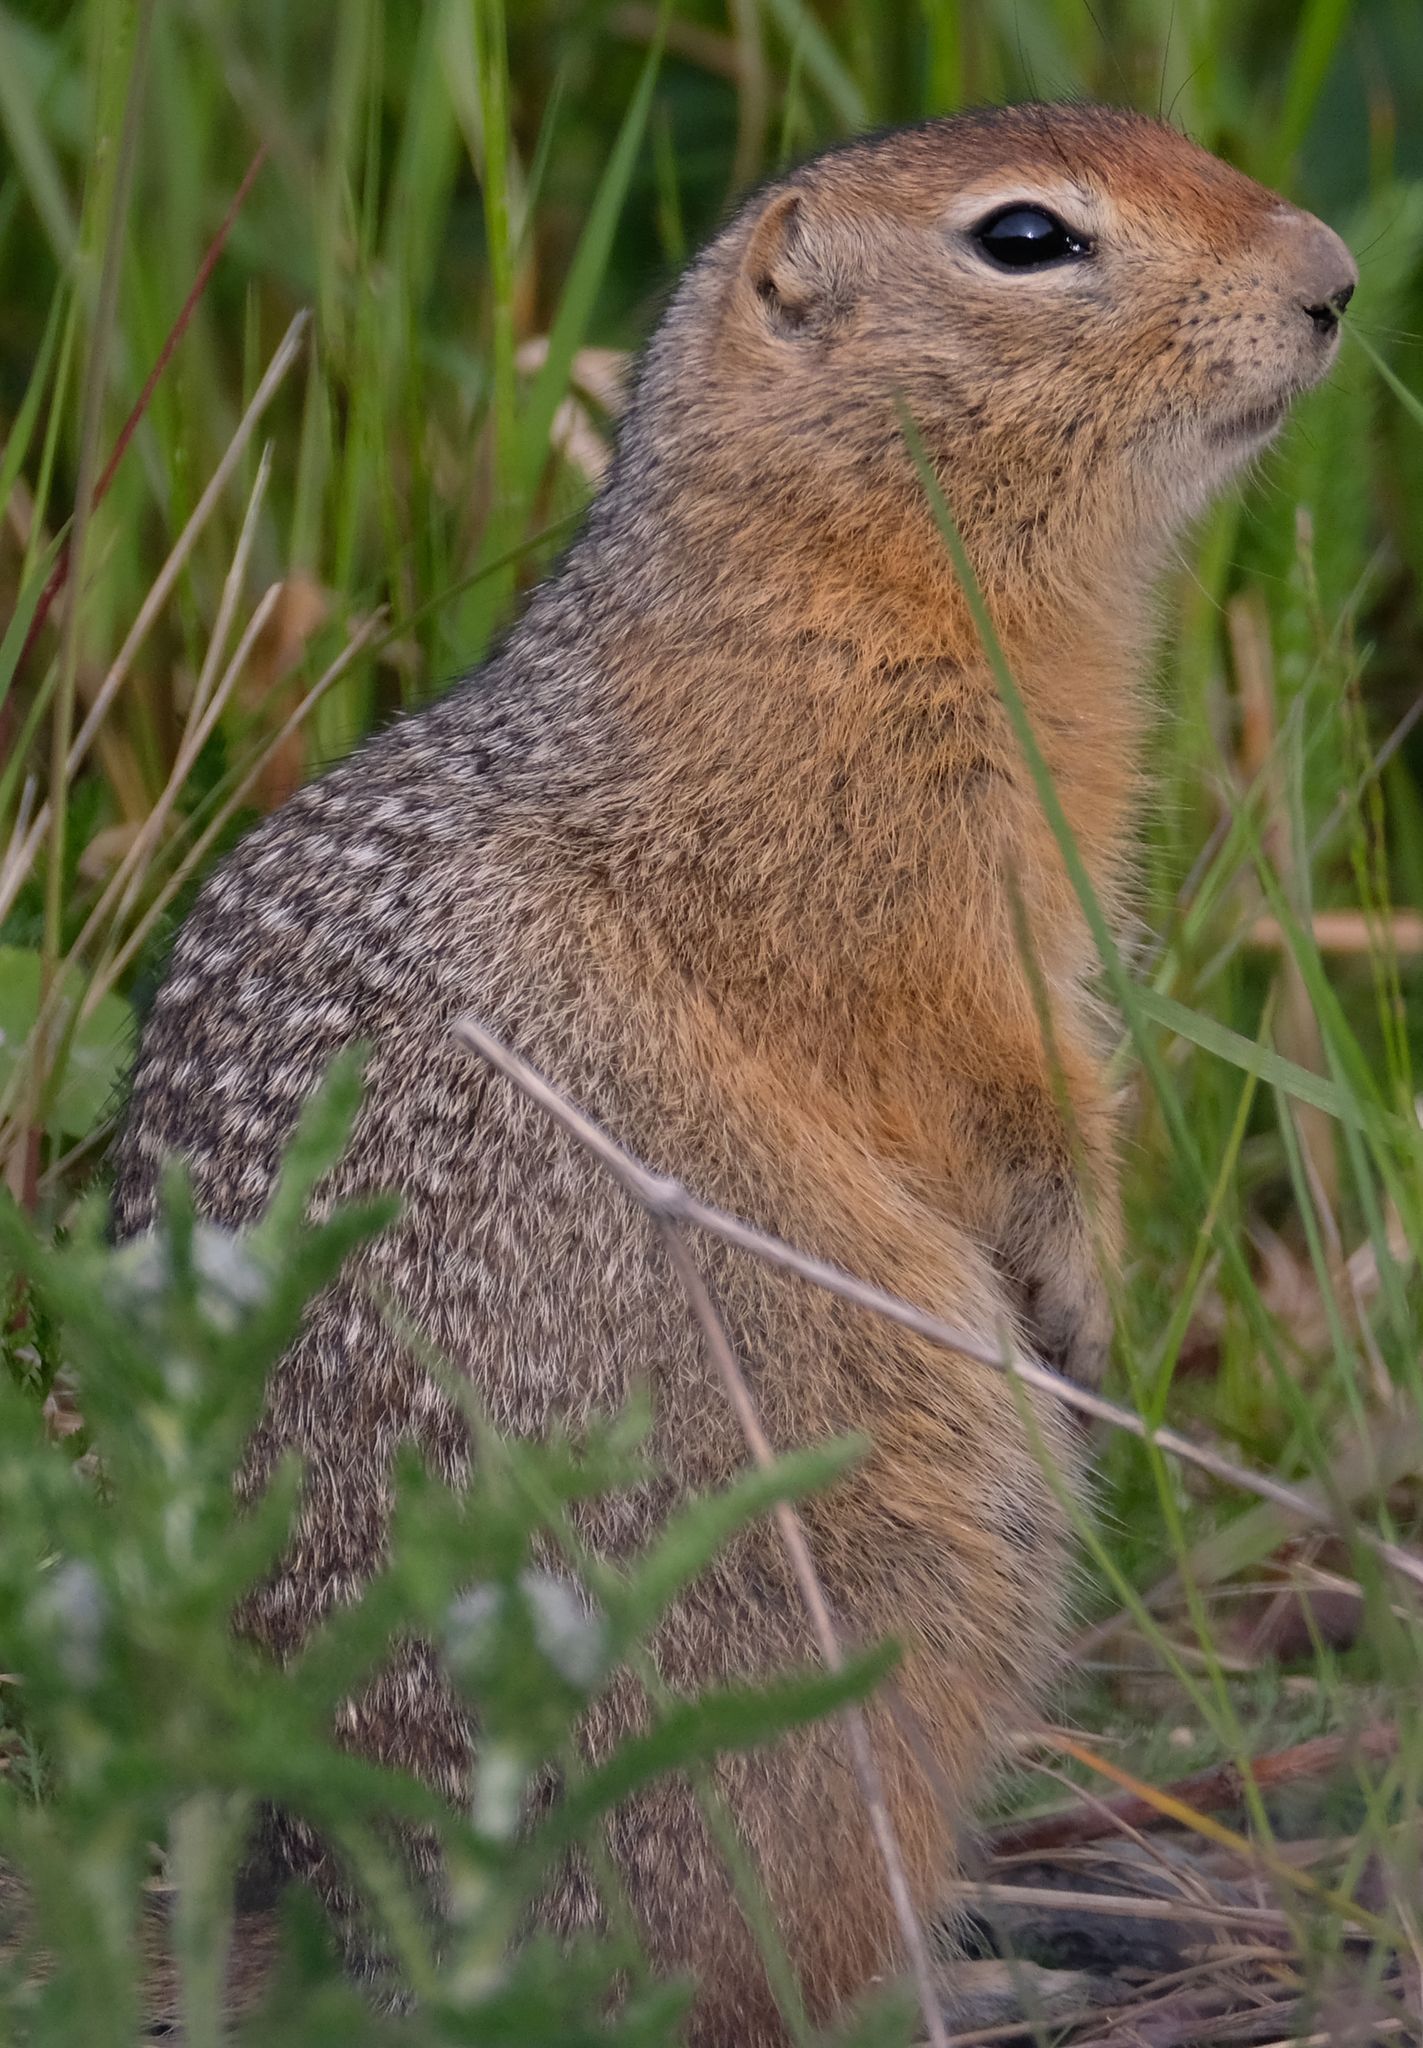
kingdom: Animalia
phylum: Chordata
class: Mammalia
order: Rodentia
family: Sciuridae
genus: Urocitellus
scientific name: Urocitellus parryii
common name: Arctic ground squirrel
